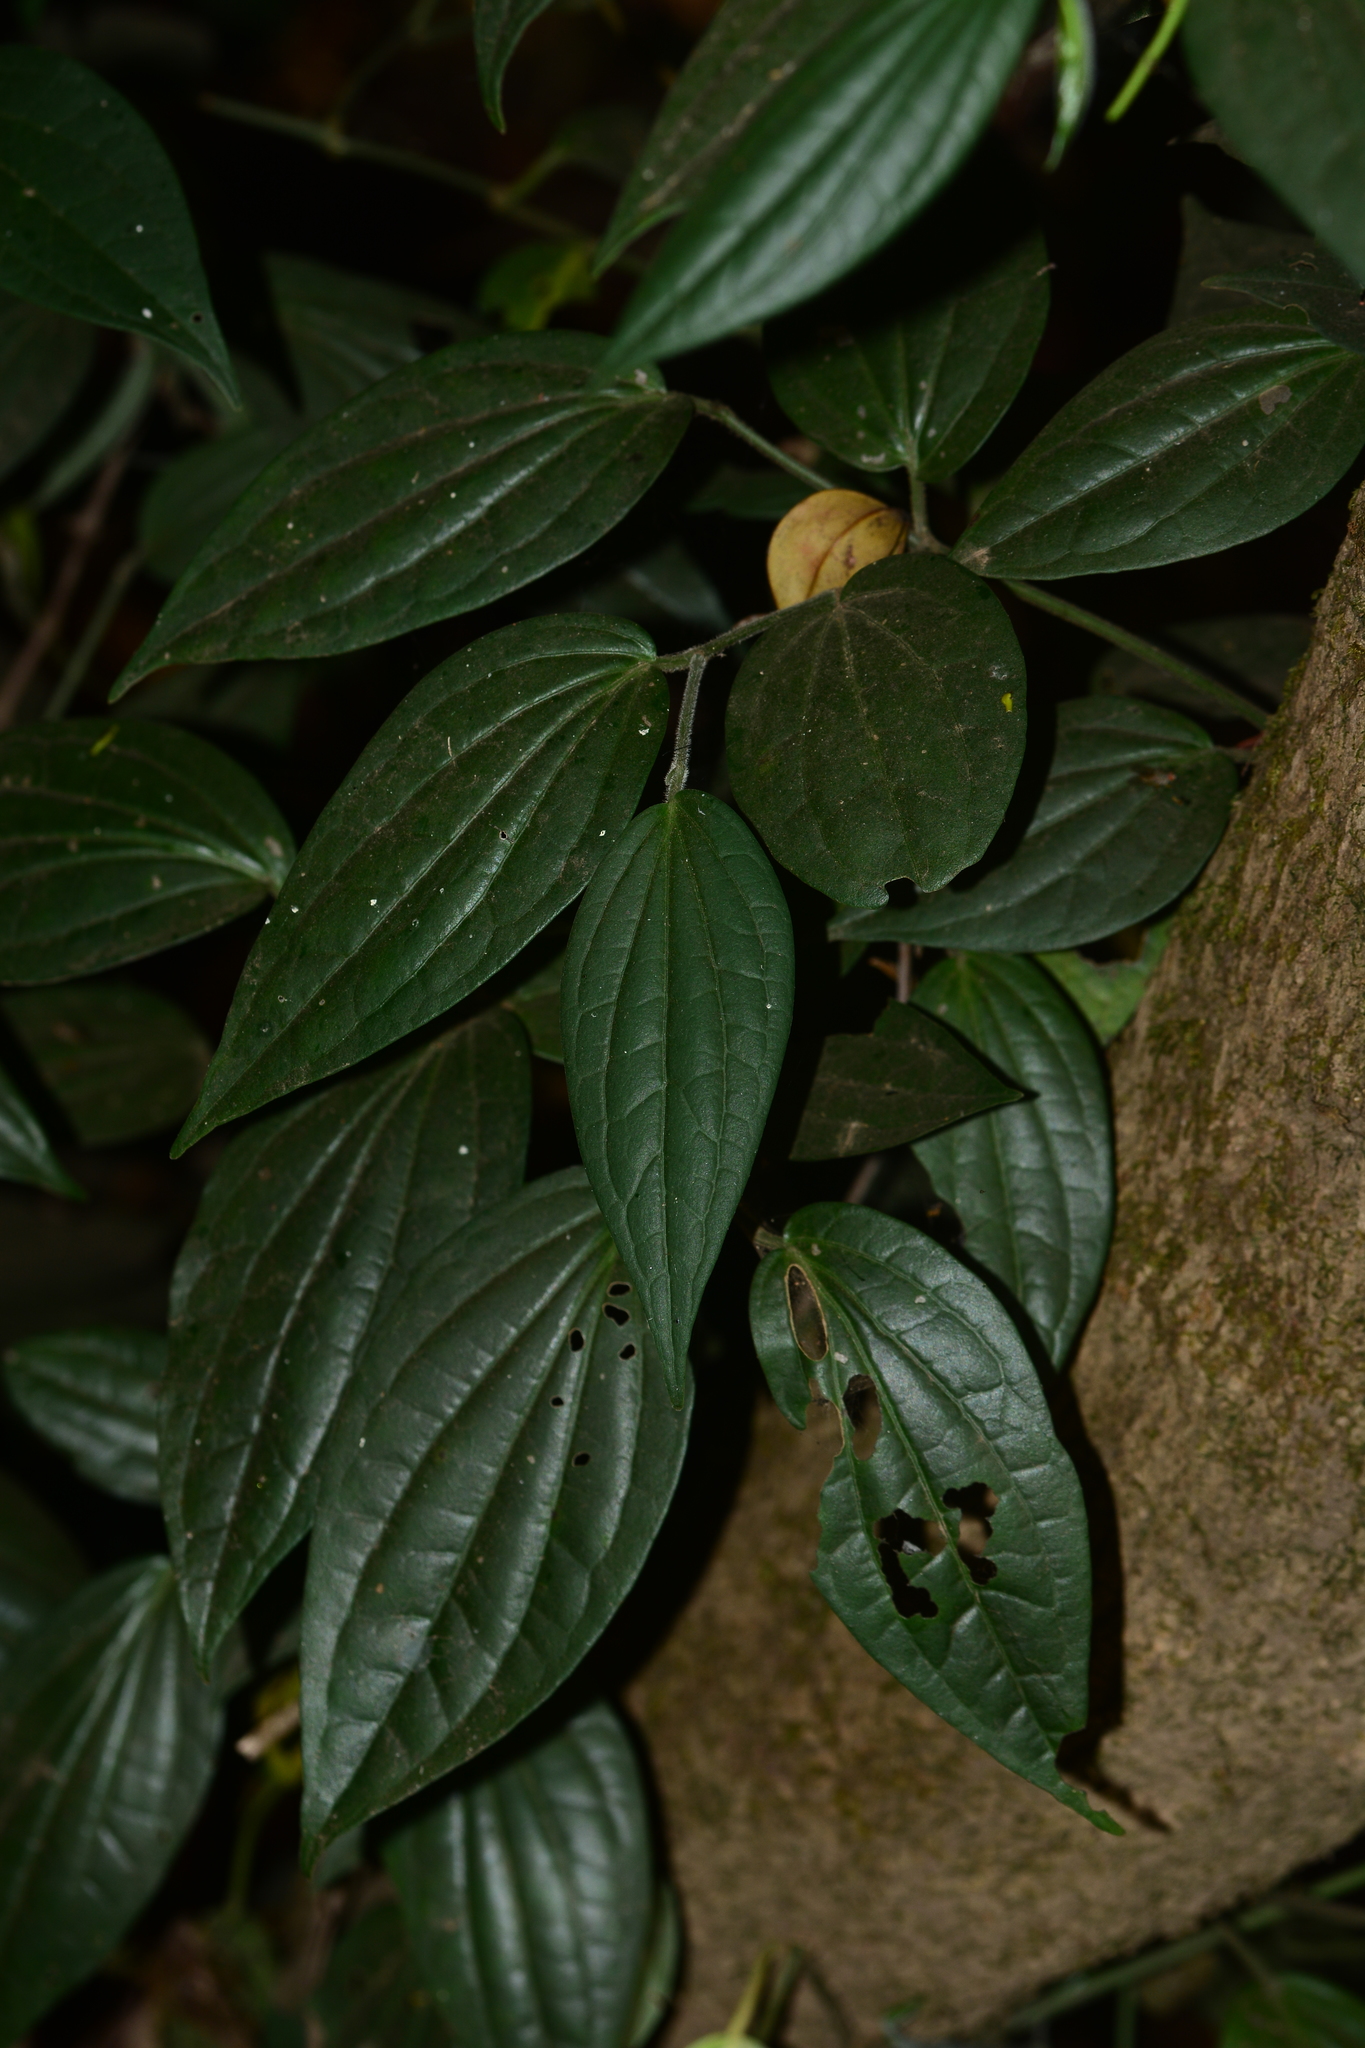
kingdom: Plantae
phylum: Tracheophyta
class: Magnoliopsida
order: Piperales
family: Piperaceae
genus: Piper
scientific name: Piper nigrum
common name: Black pepper
